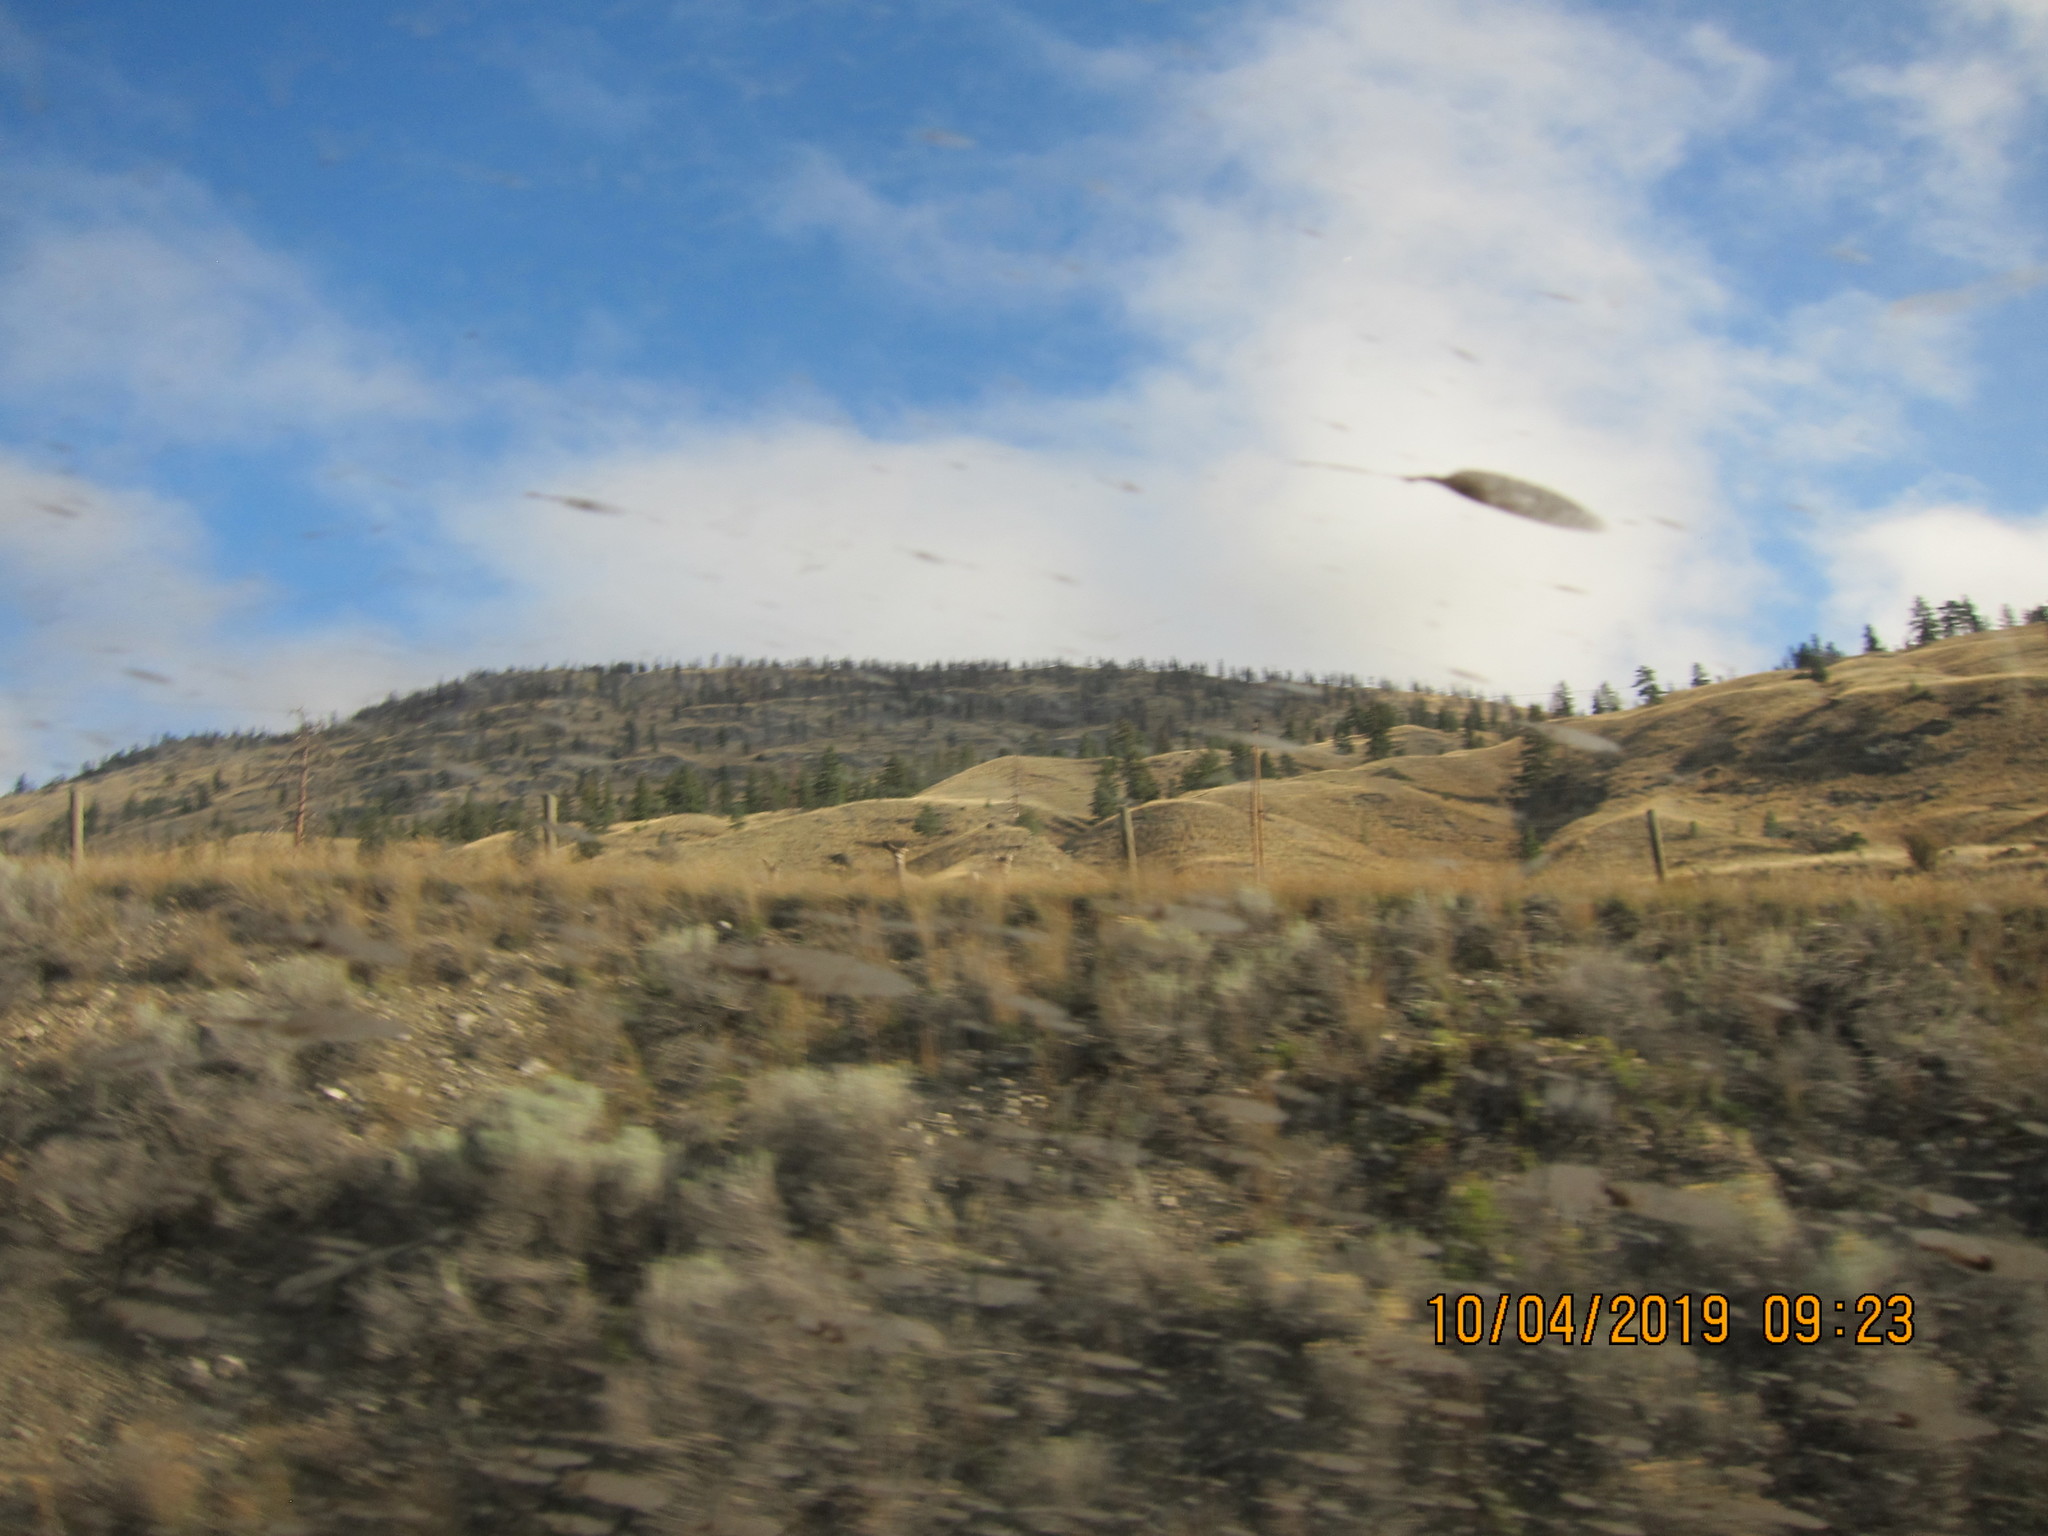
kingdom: Animalia
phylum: Chordata
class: Mammalia
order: Artiodactyla
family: Cervidae
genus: Odocoileus
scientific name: Odocoileus hemionus
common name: Mule deer
